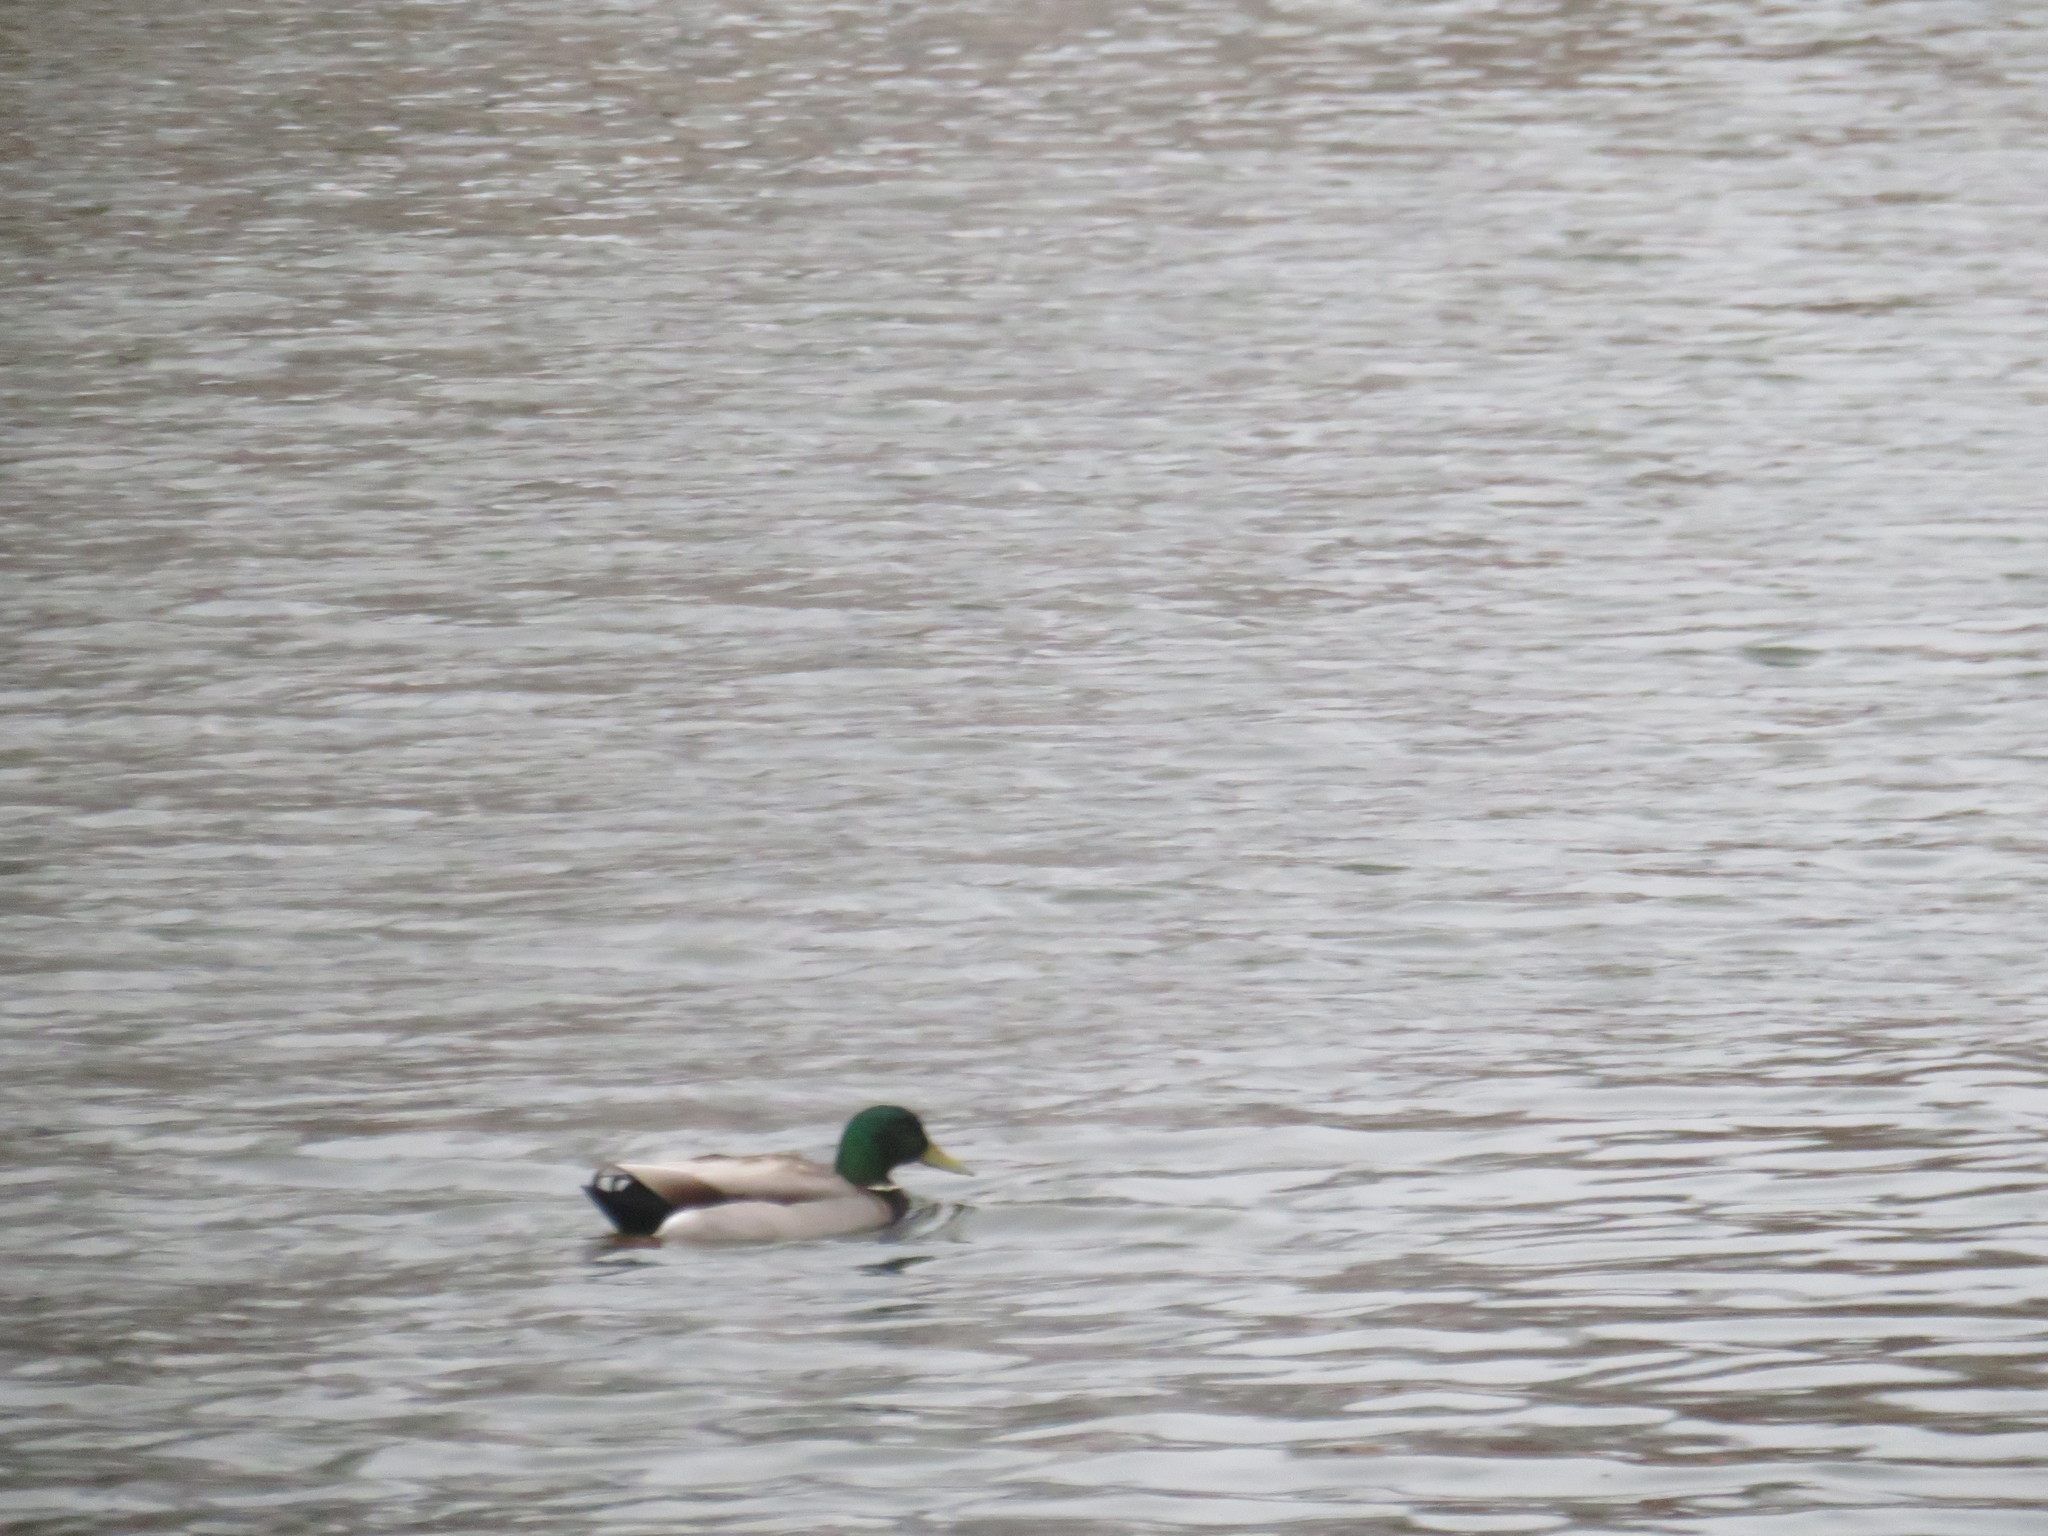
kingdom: Animalia
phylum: Chordata
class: Aves
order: Anseriformes
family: Anatidae
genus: Anas
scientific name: Anas platyrhynchos
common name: Mallard
